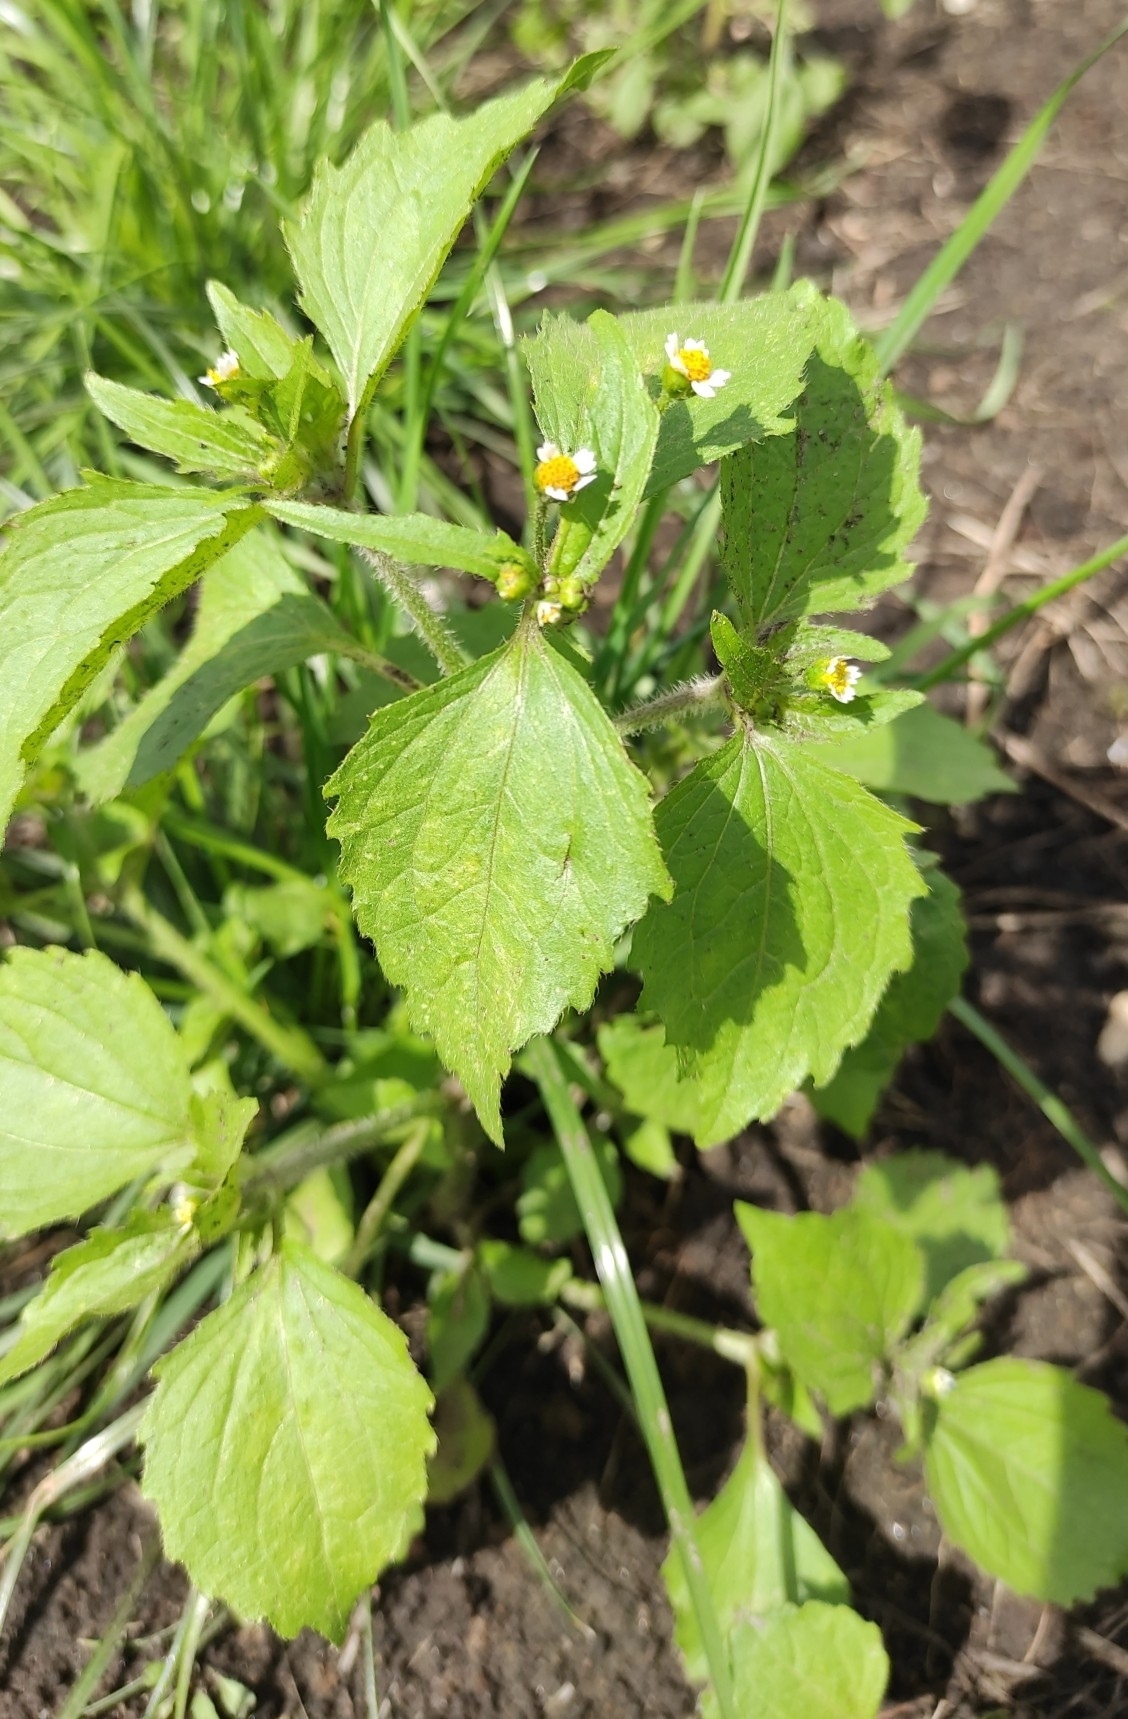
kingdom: Plantae
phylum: Tracheophyta
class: Magnoliopsida
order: Asterales
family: Asteraceae
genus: Galinsoga
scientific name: Galinsoga quadriradiata
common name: Shaggy soldier
